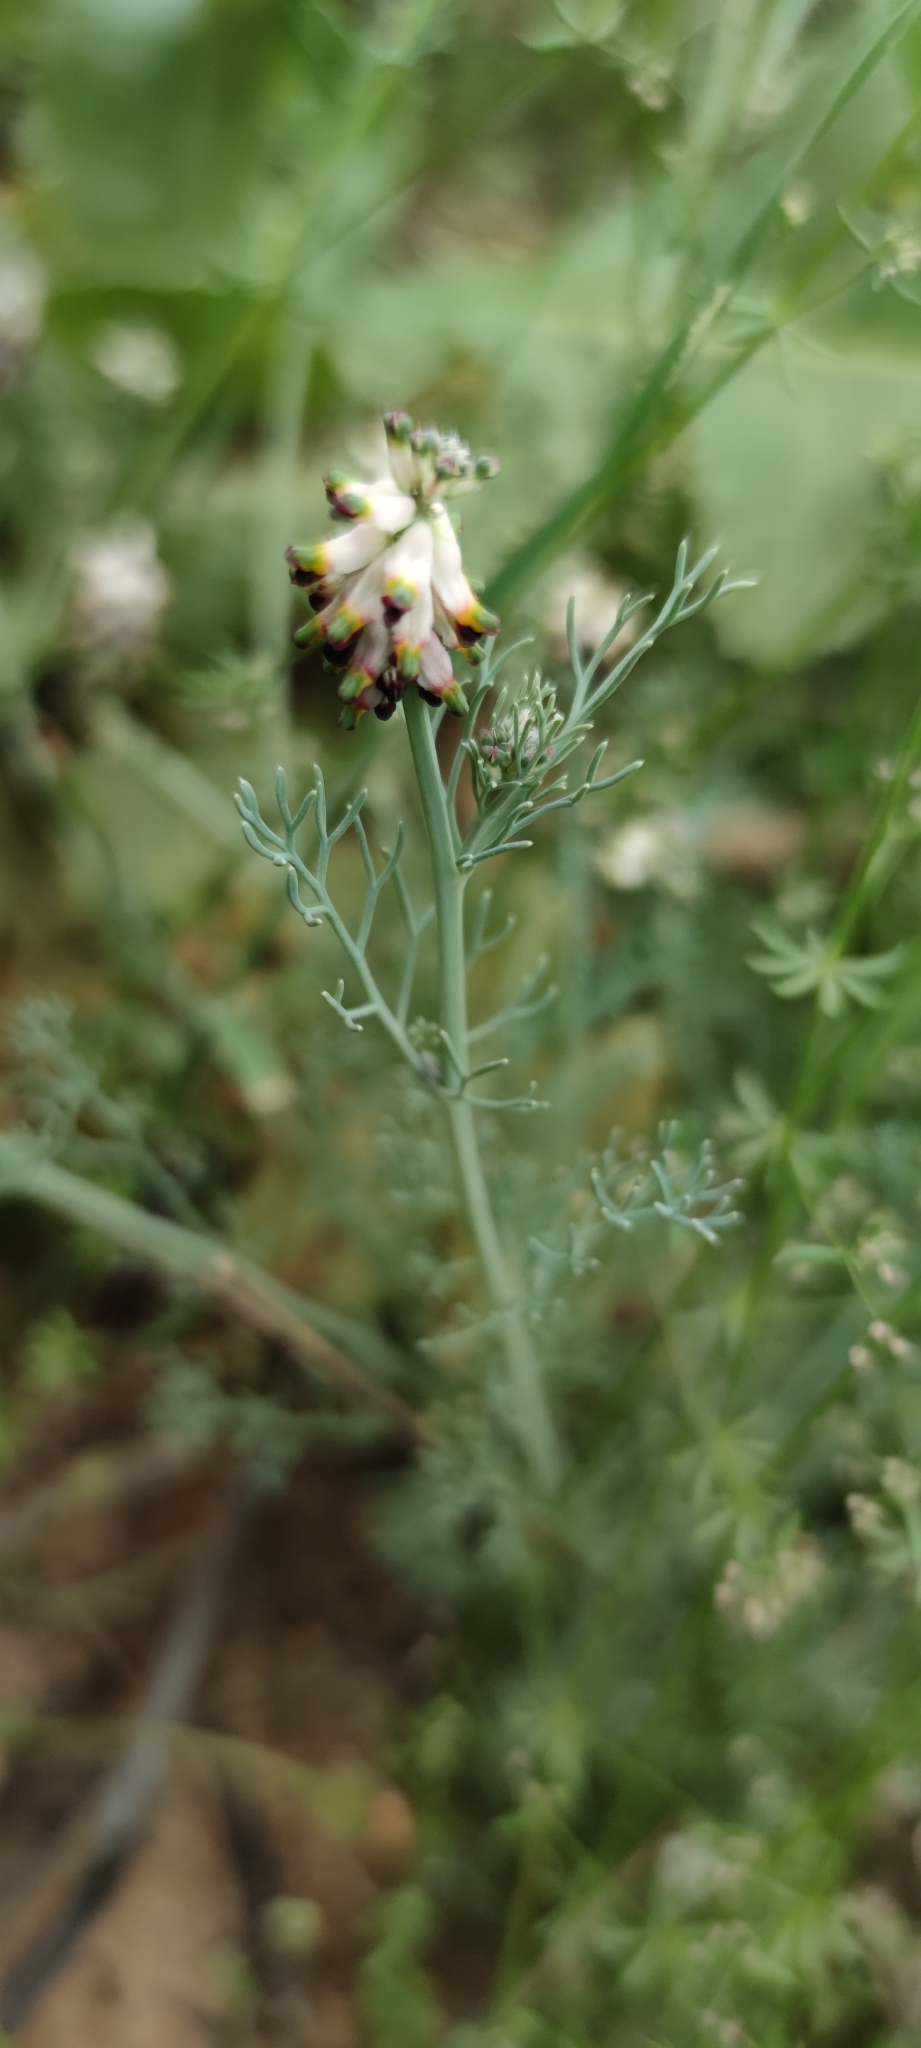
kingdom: Plantae
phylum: Tracheophyta
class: Magnoliopsida
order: Ranunculales
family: Papaveraceae
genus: Platycapnos
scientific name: Platycapnos spicata
